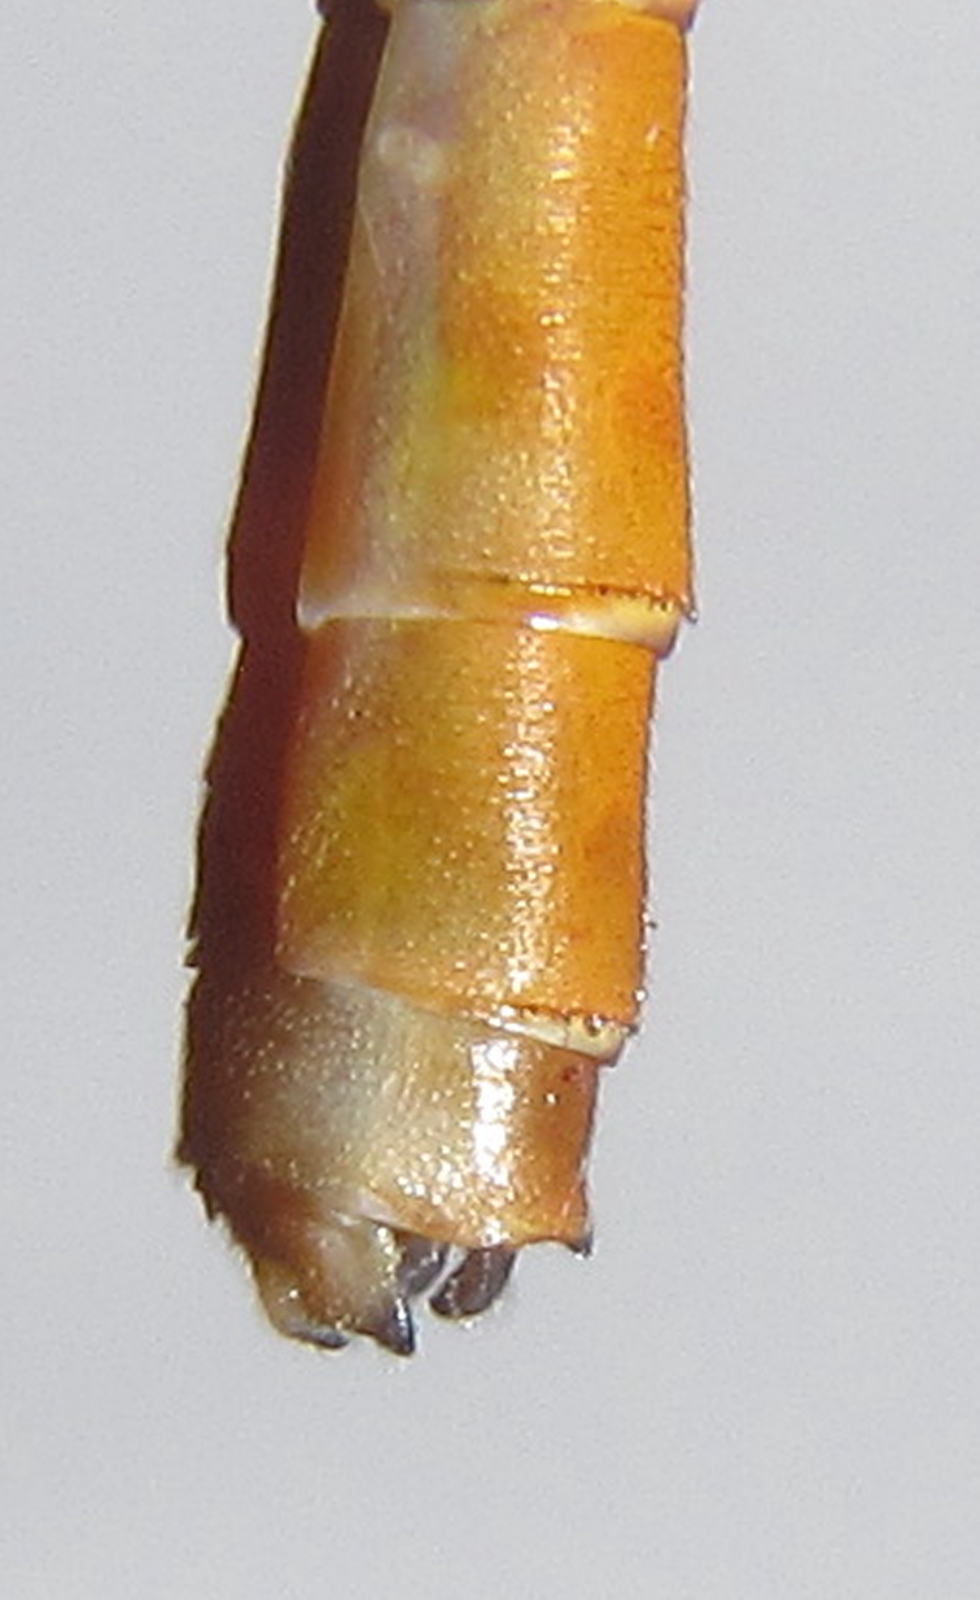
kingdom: Animalia
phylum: Arthropoda
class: Insecta
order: Odonata
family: Coenagrionidae
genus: Ceriagrion
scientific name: Ceriagrion glabrum
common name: Common pond damsel
